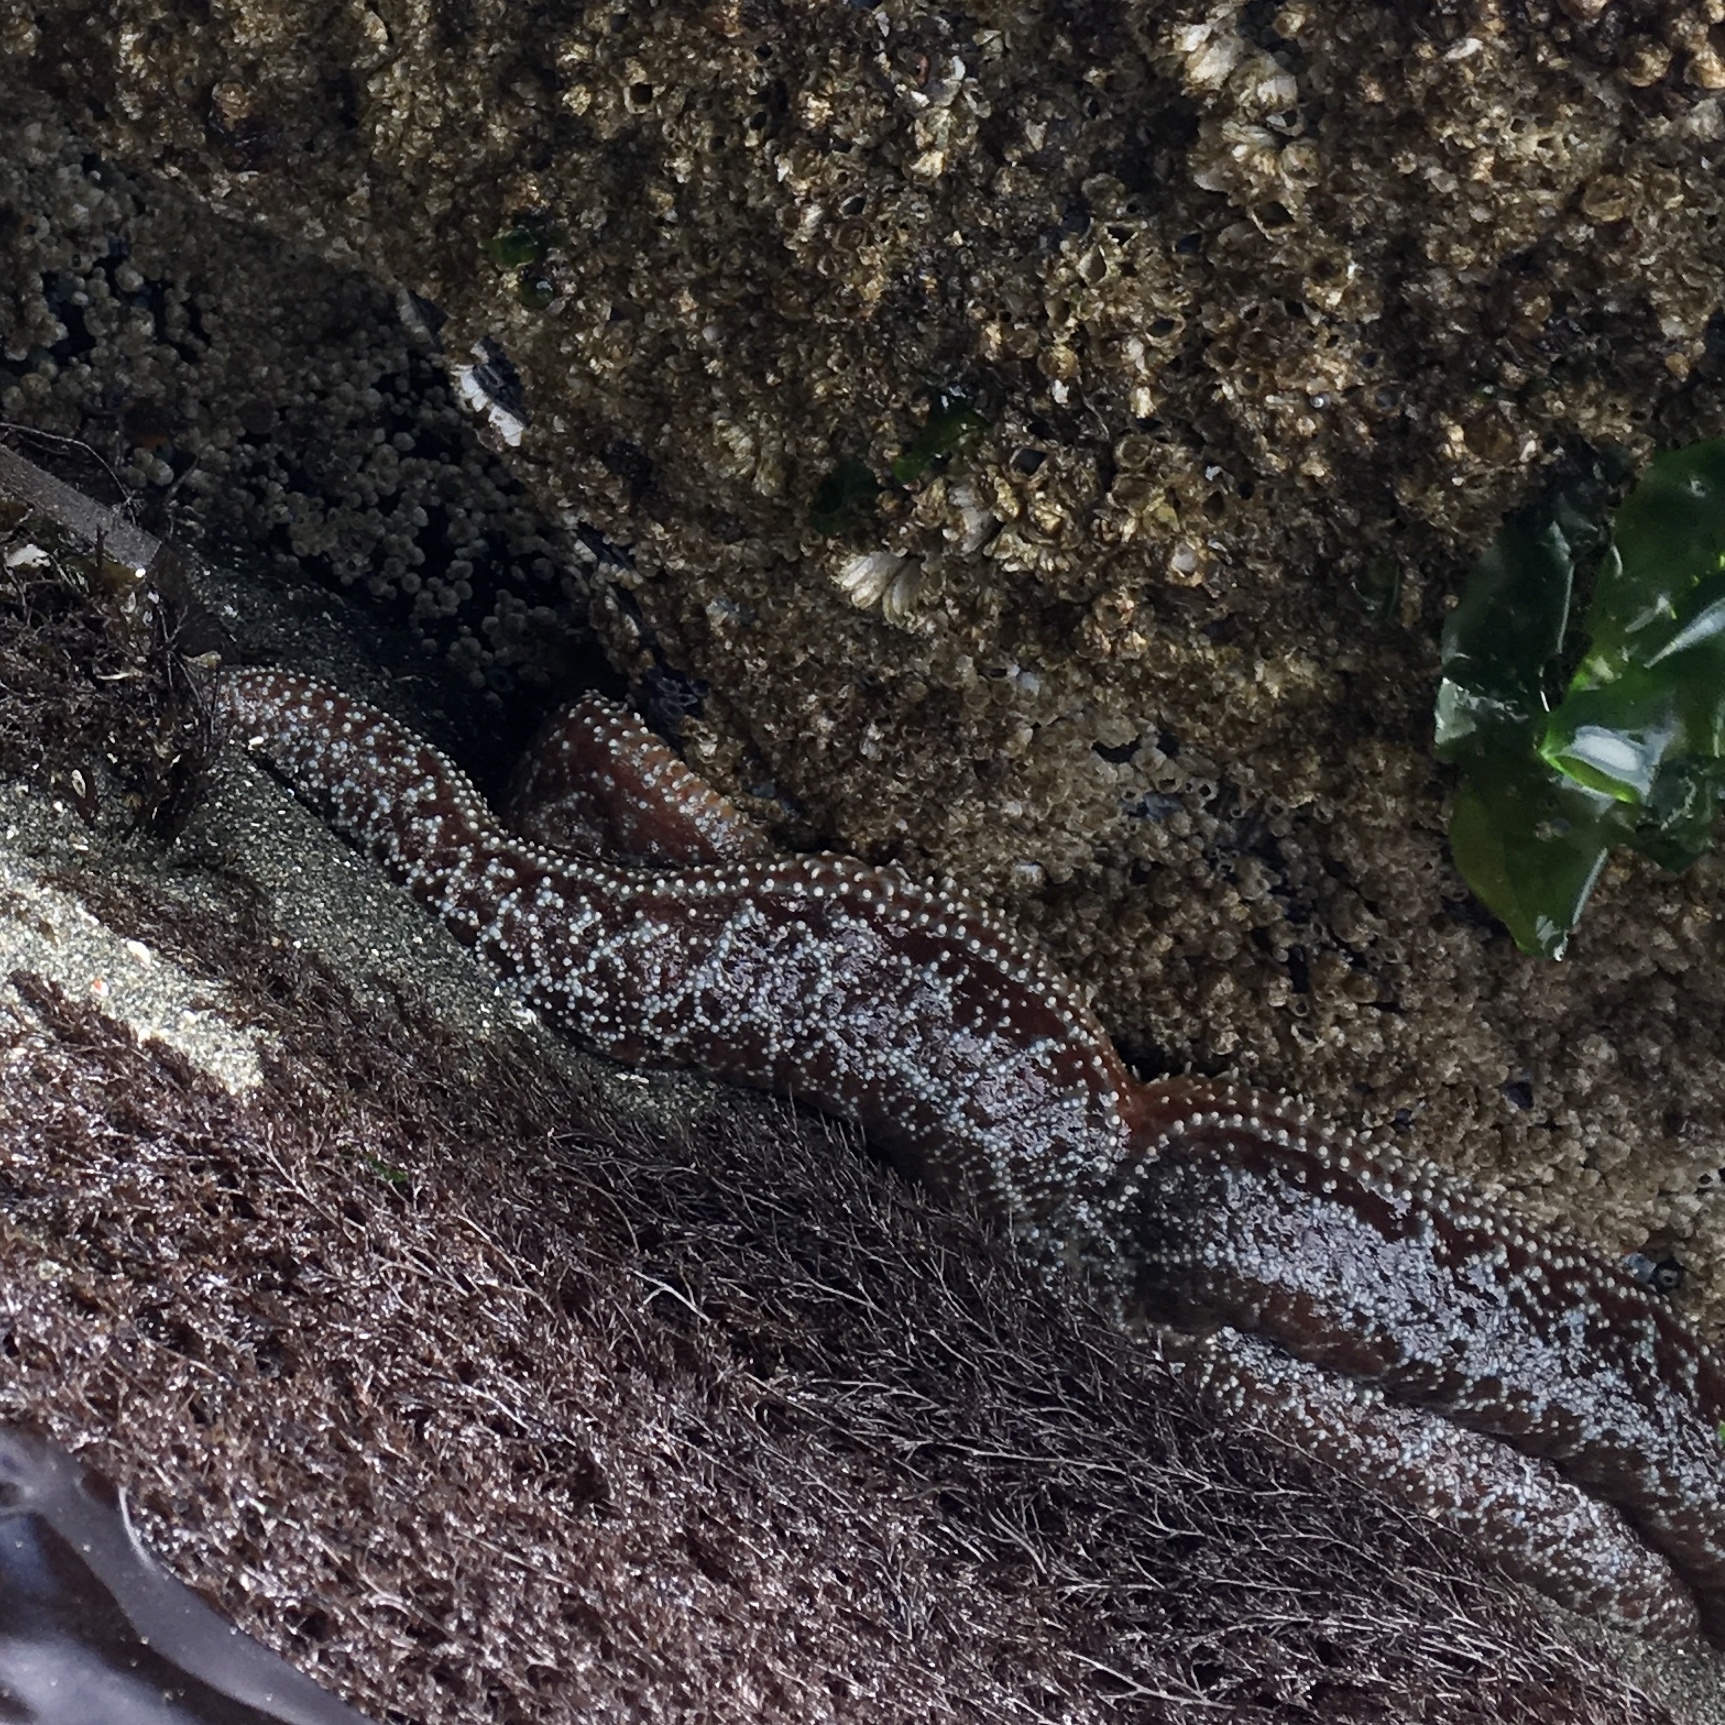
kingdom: Animalia
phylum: Echinodermata
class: Asteroidea
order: Forcipulatida
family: Asteriidae
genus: Pisaster
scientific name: Pisaster ochraceus
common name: Ochre stars
